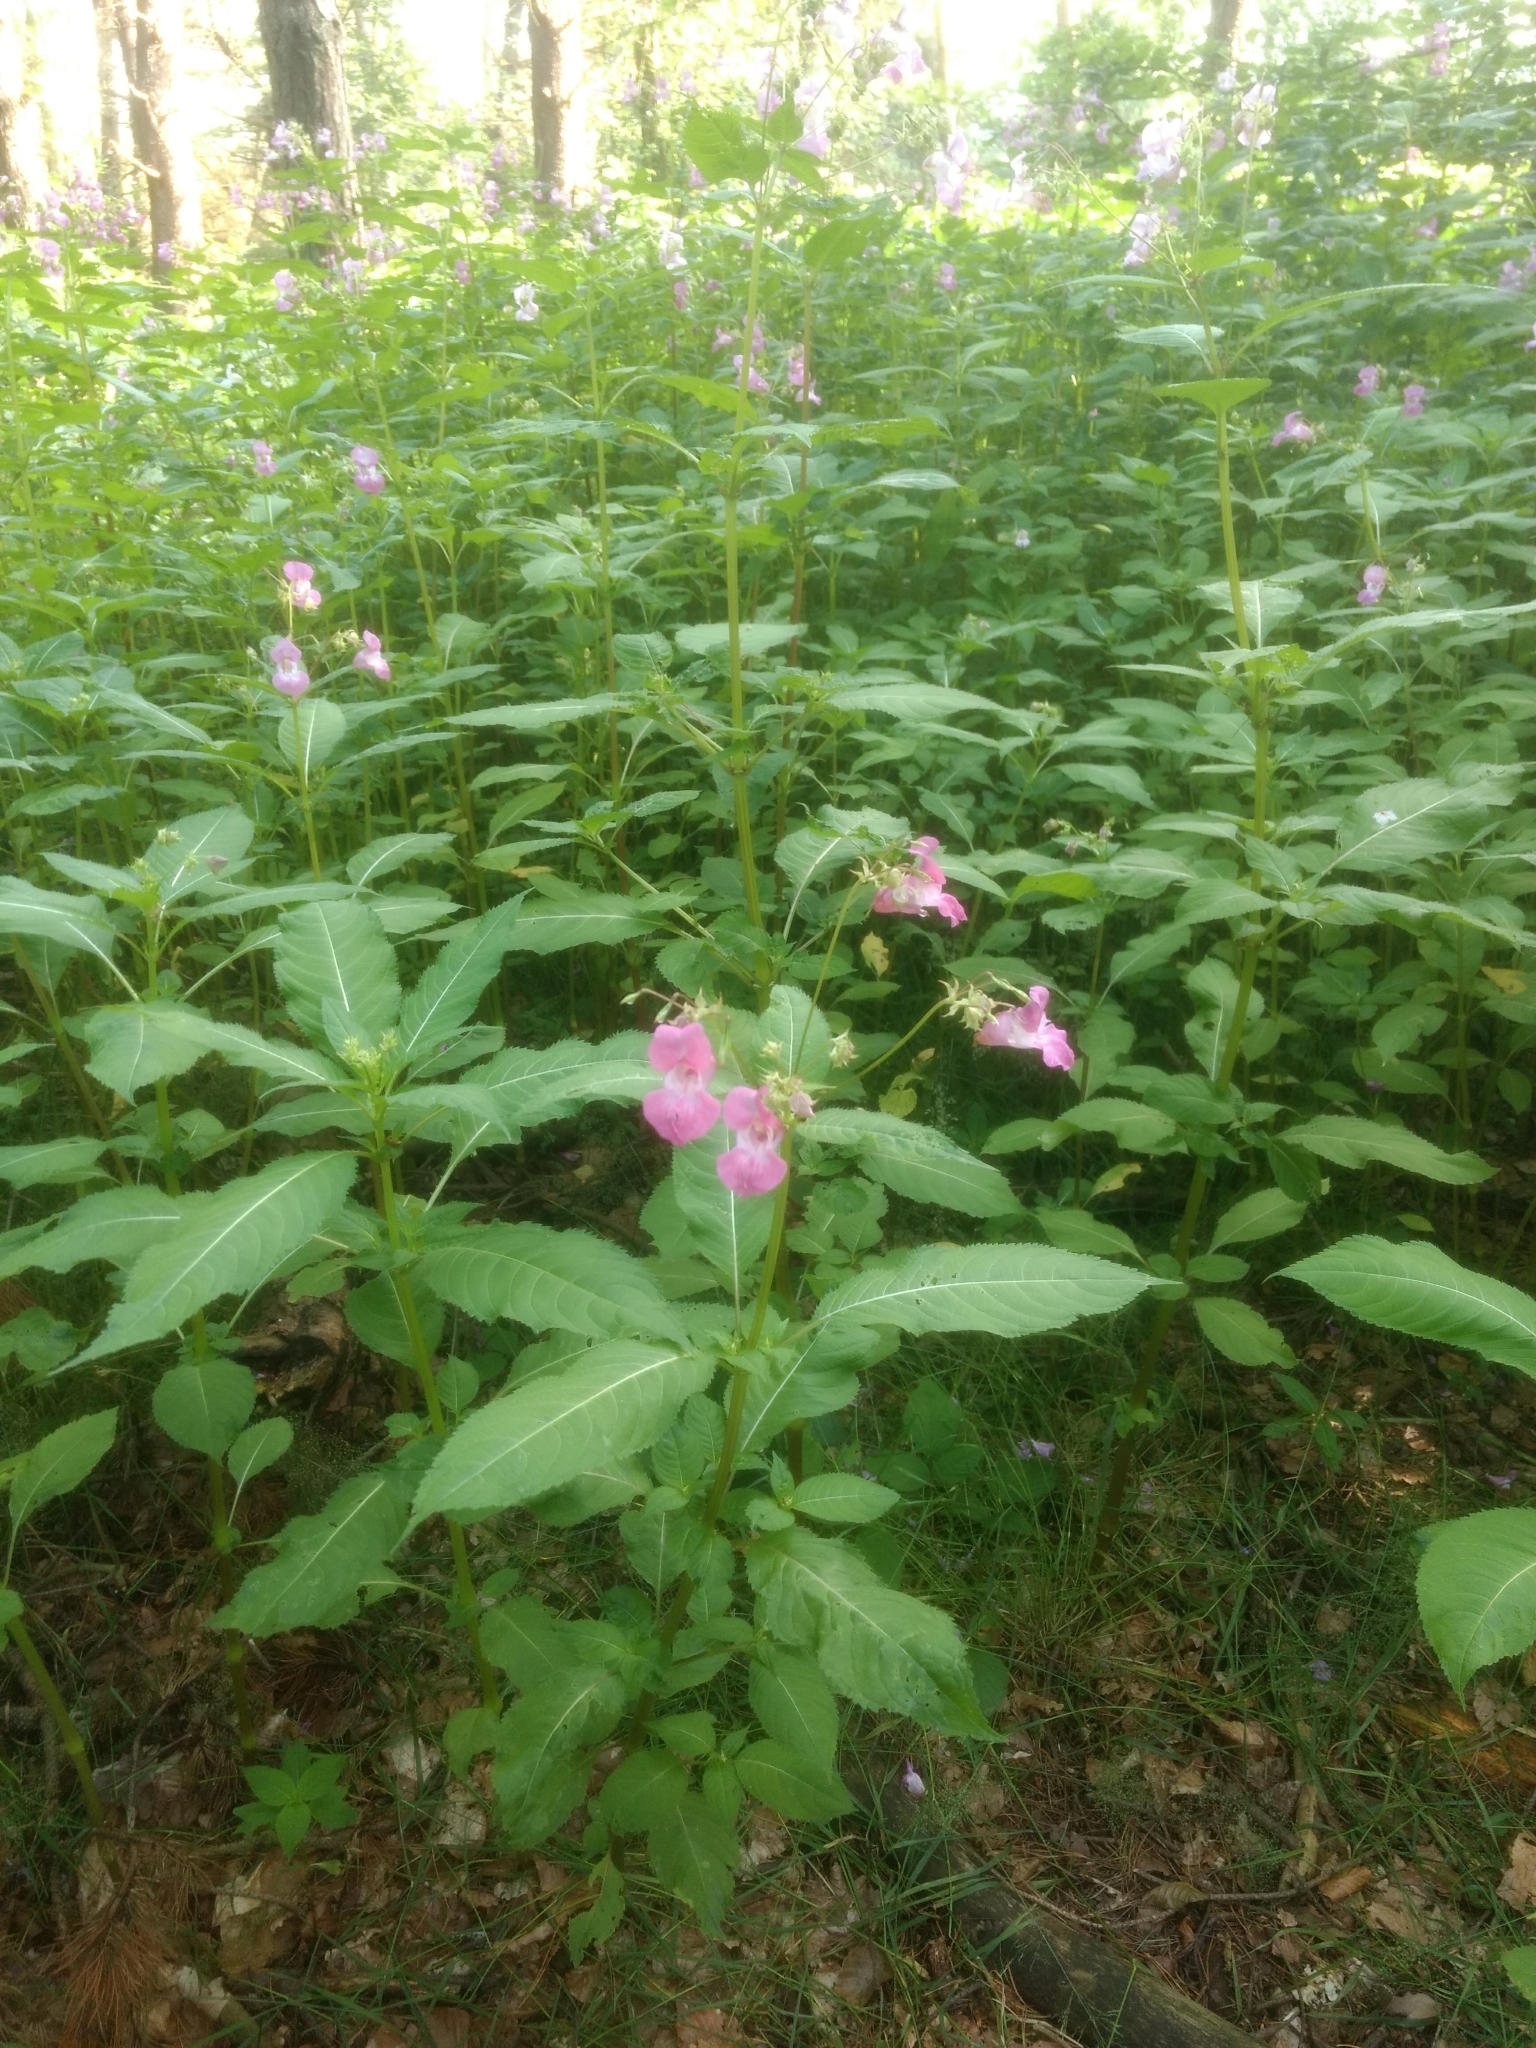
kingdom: Plantae
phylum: Tracheophyta
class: Magnoliopsida
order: Ericales
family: Balsaminaceae
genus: Impatiens
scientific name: Impatiens glandulifera
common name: Himalayan balsam
